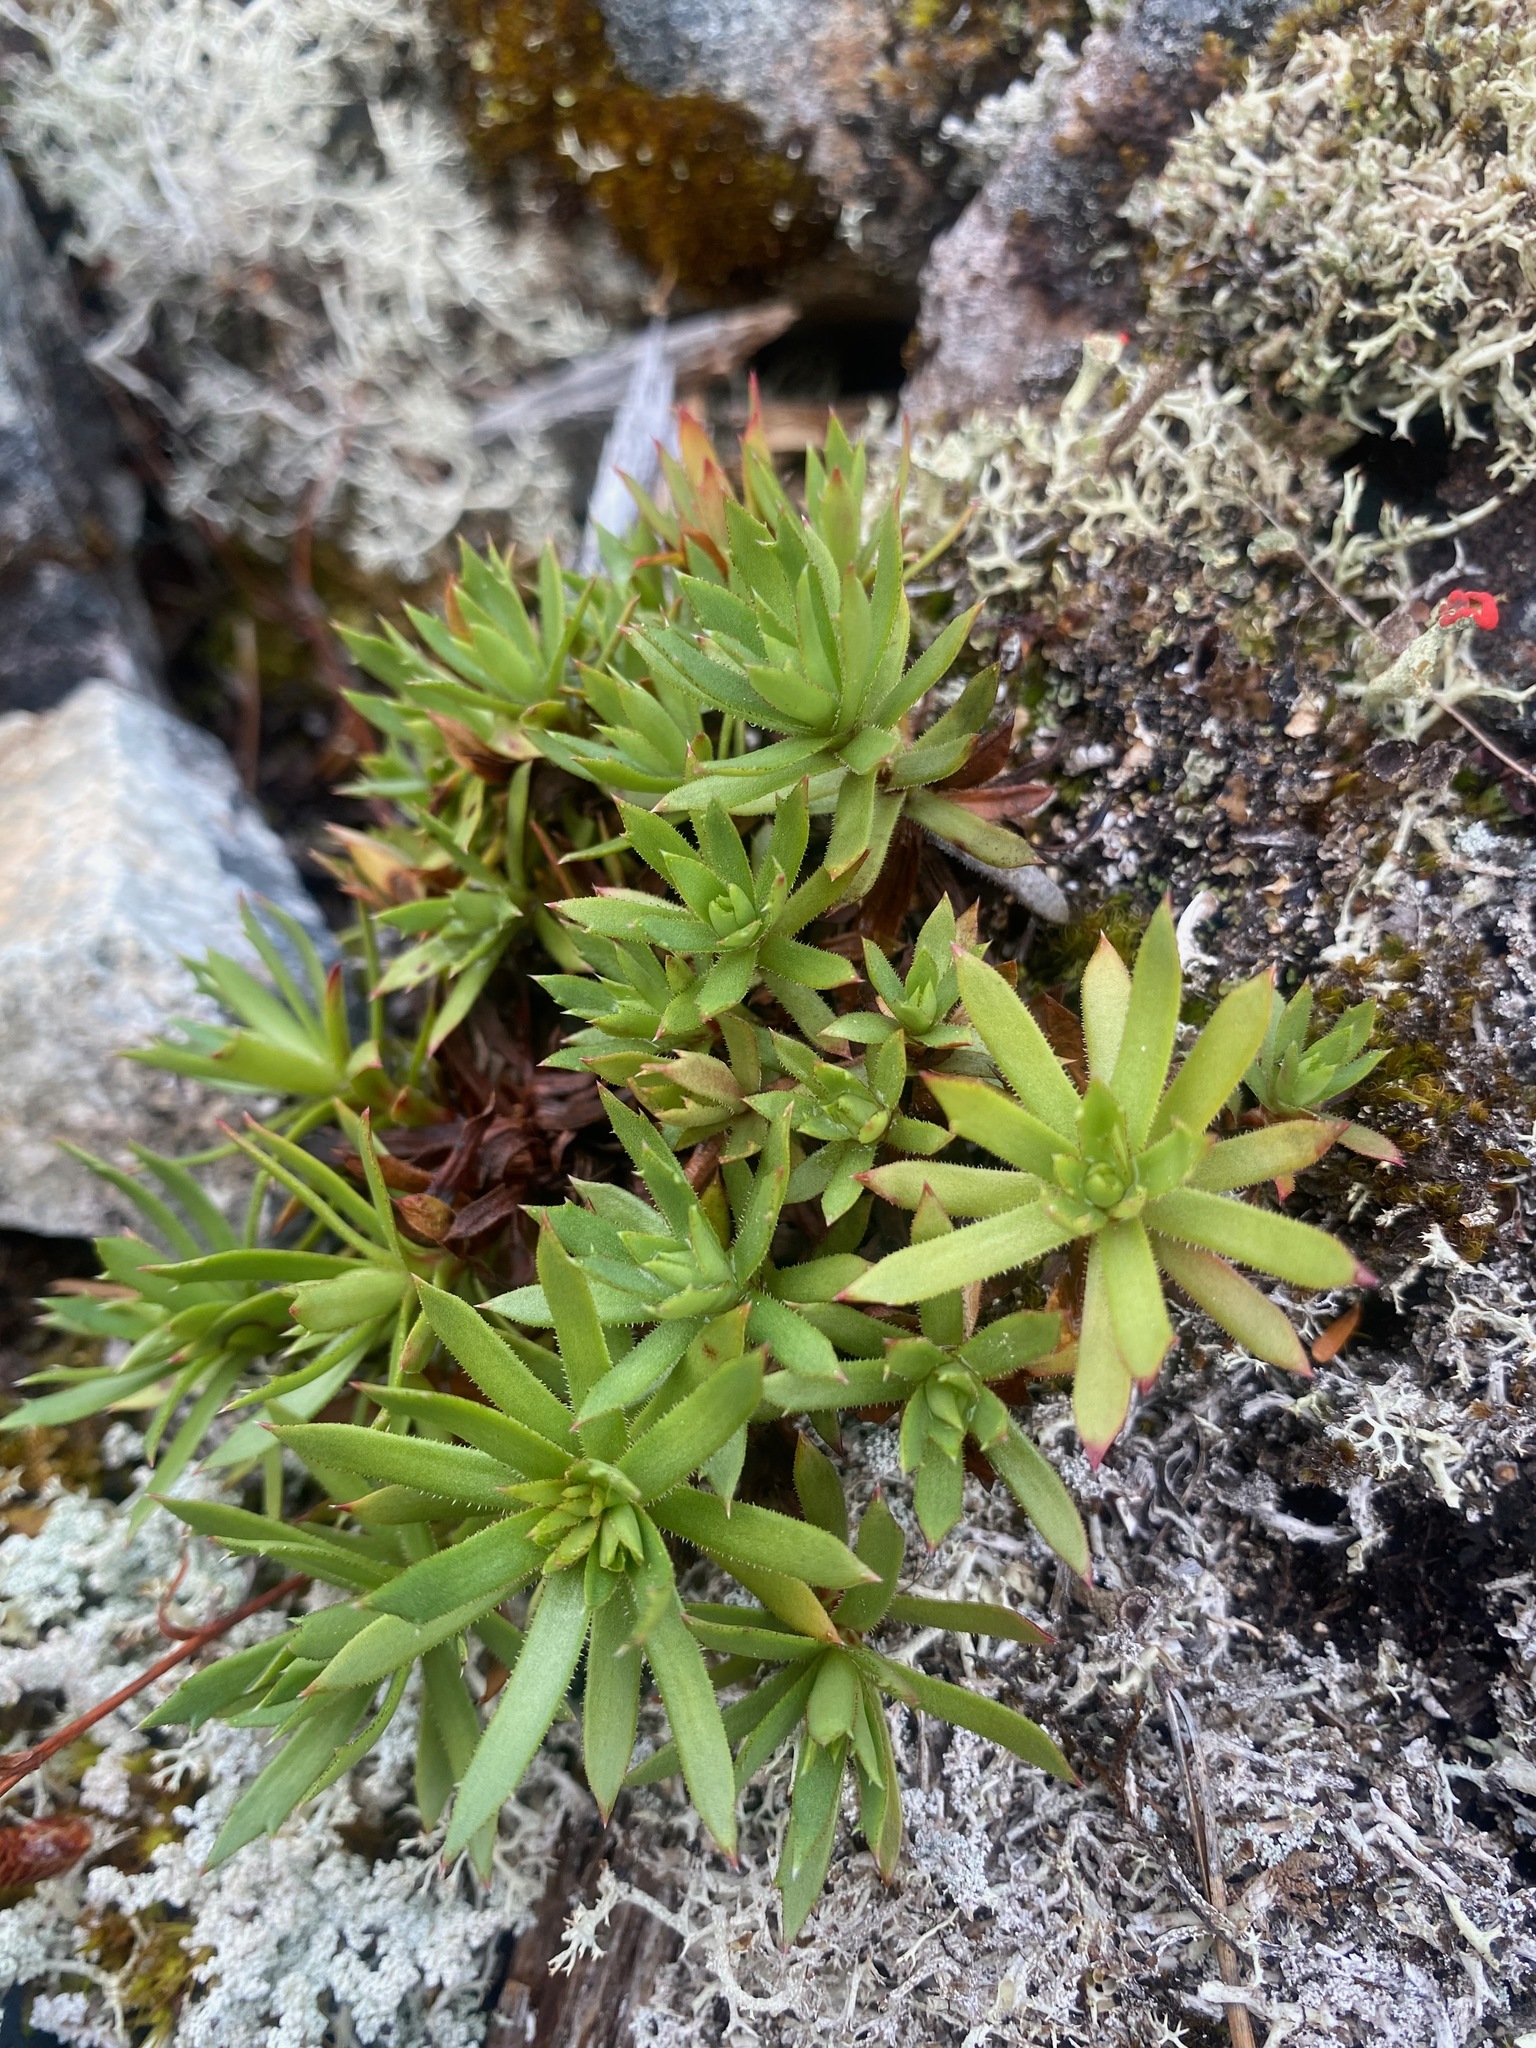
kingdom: Plantae
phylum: Tracheophyta
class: Magnoliopsida
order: Saxifragales
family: Saxifragaceae
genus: Saxifraga
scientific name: Saxifraga tricuspidata
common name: Prickly saxifrage
